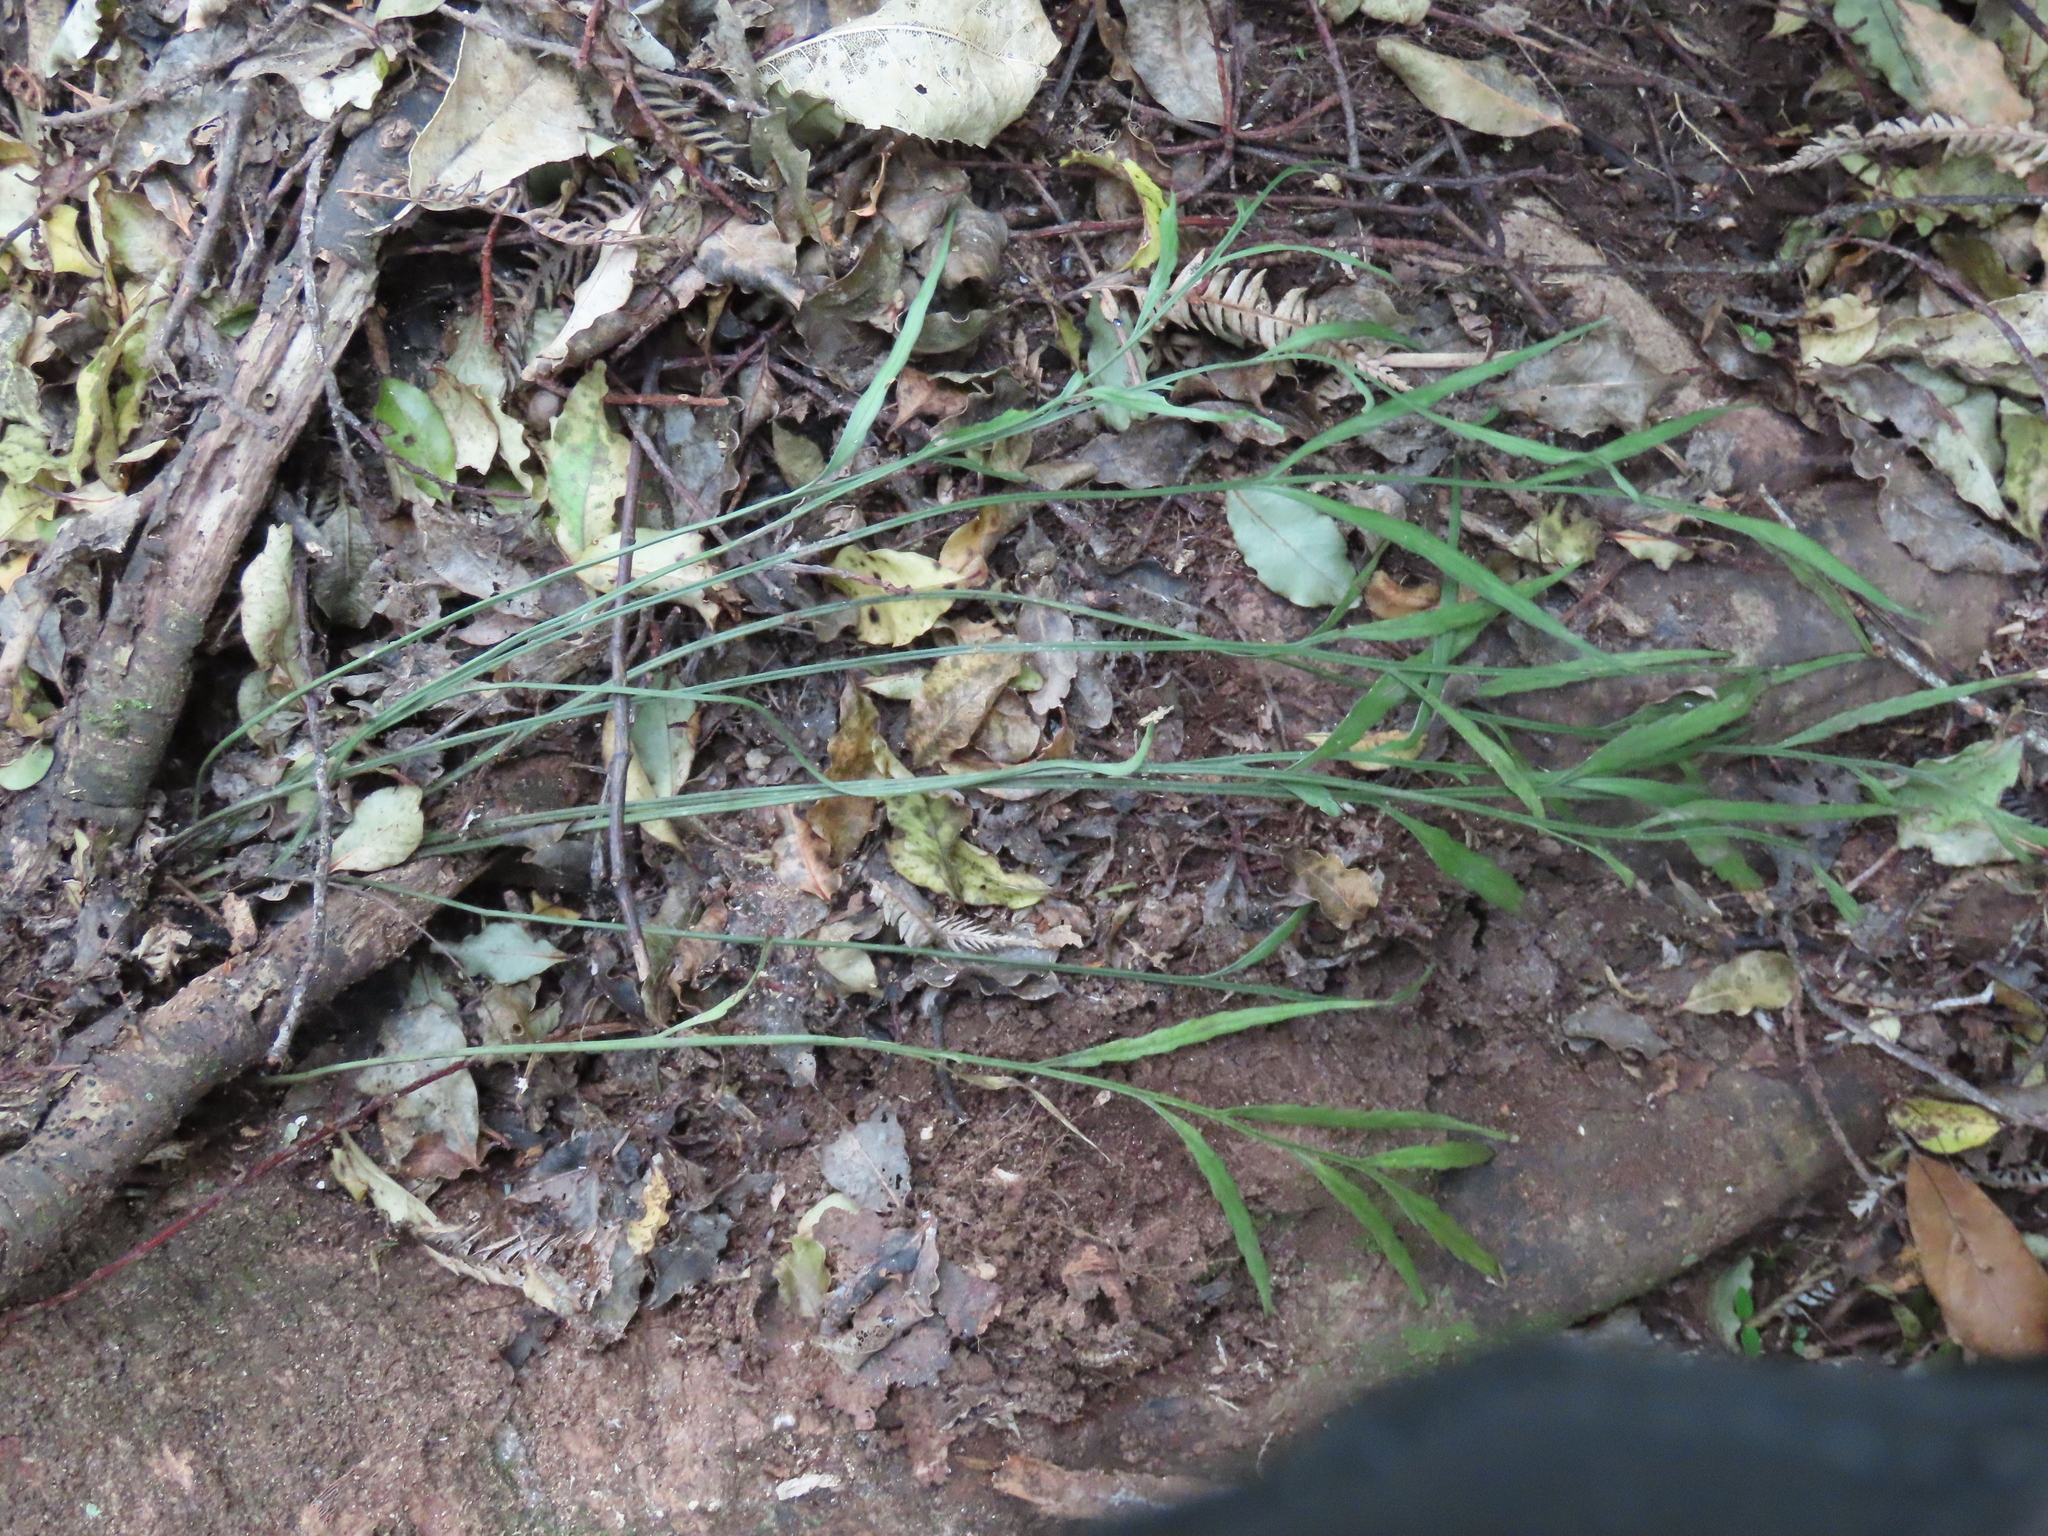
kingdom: Plantae
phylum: Tracheophyta
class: Polypodiopsida
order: Polypodiales
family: Aspleniaceae
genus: Asplenium
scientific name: Asplenium flaccidum
